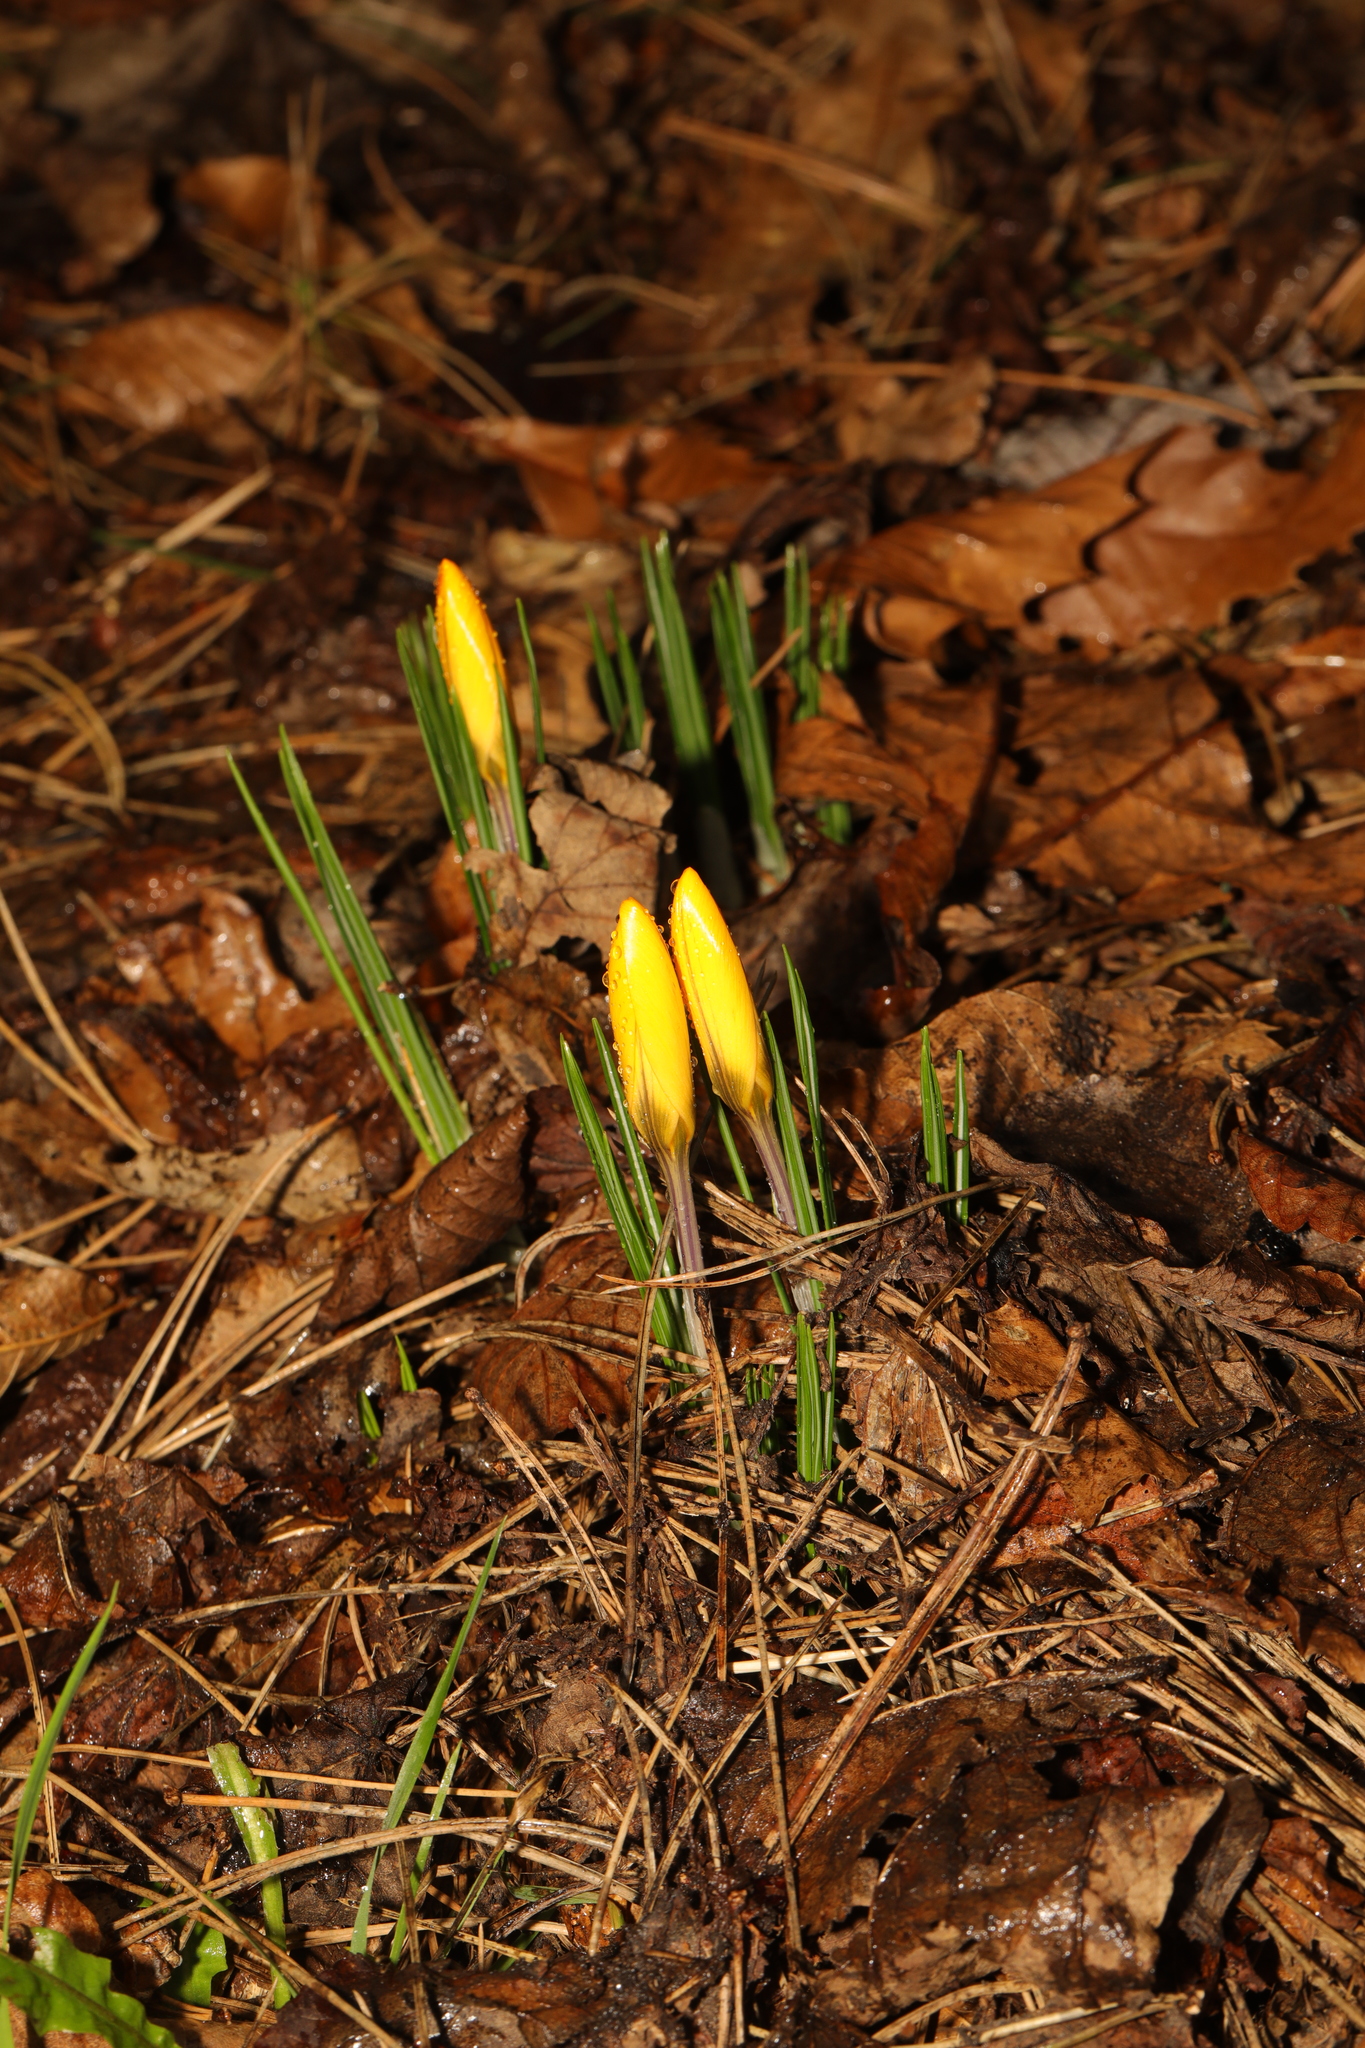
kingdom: Plantae
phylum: Tracheophyta
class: Liliopsida
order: Asparagales
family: Iridaceae
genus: Crocus
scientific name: Crocus luteus
